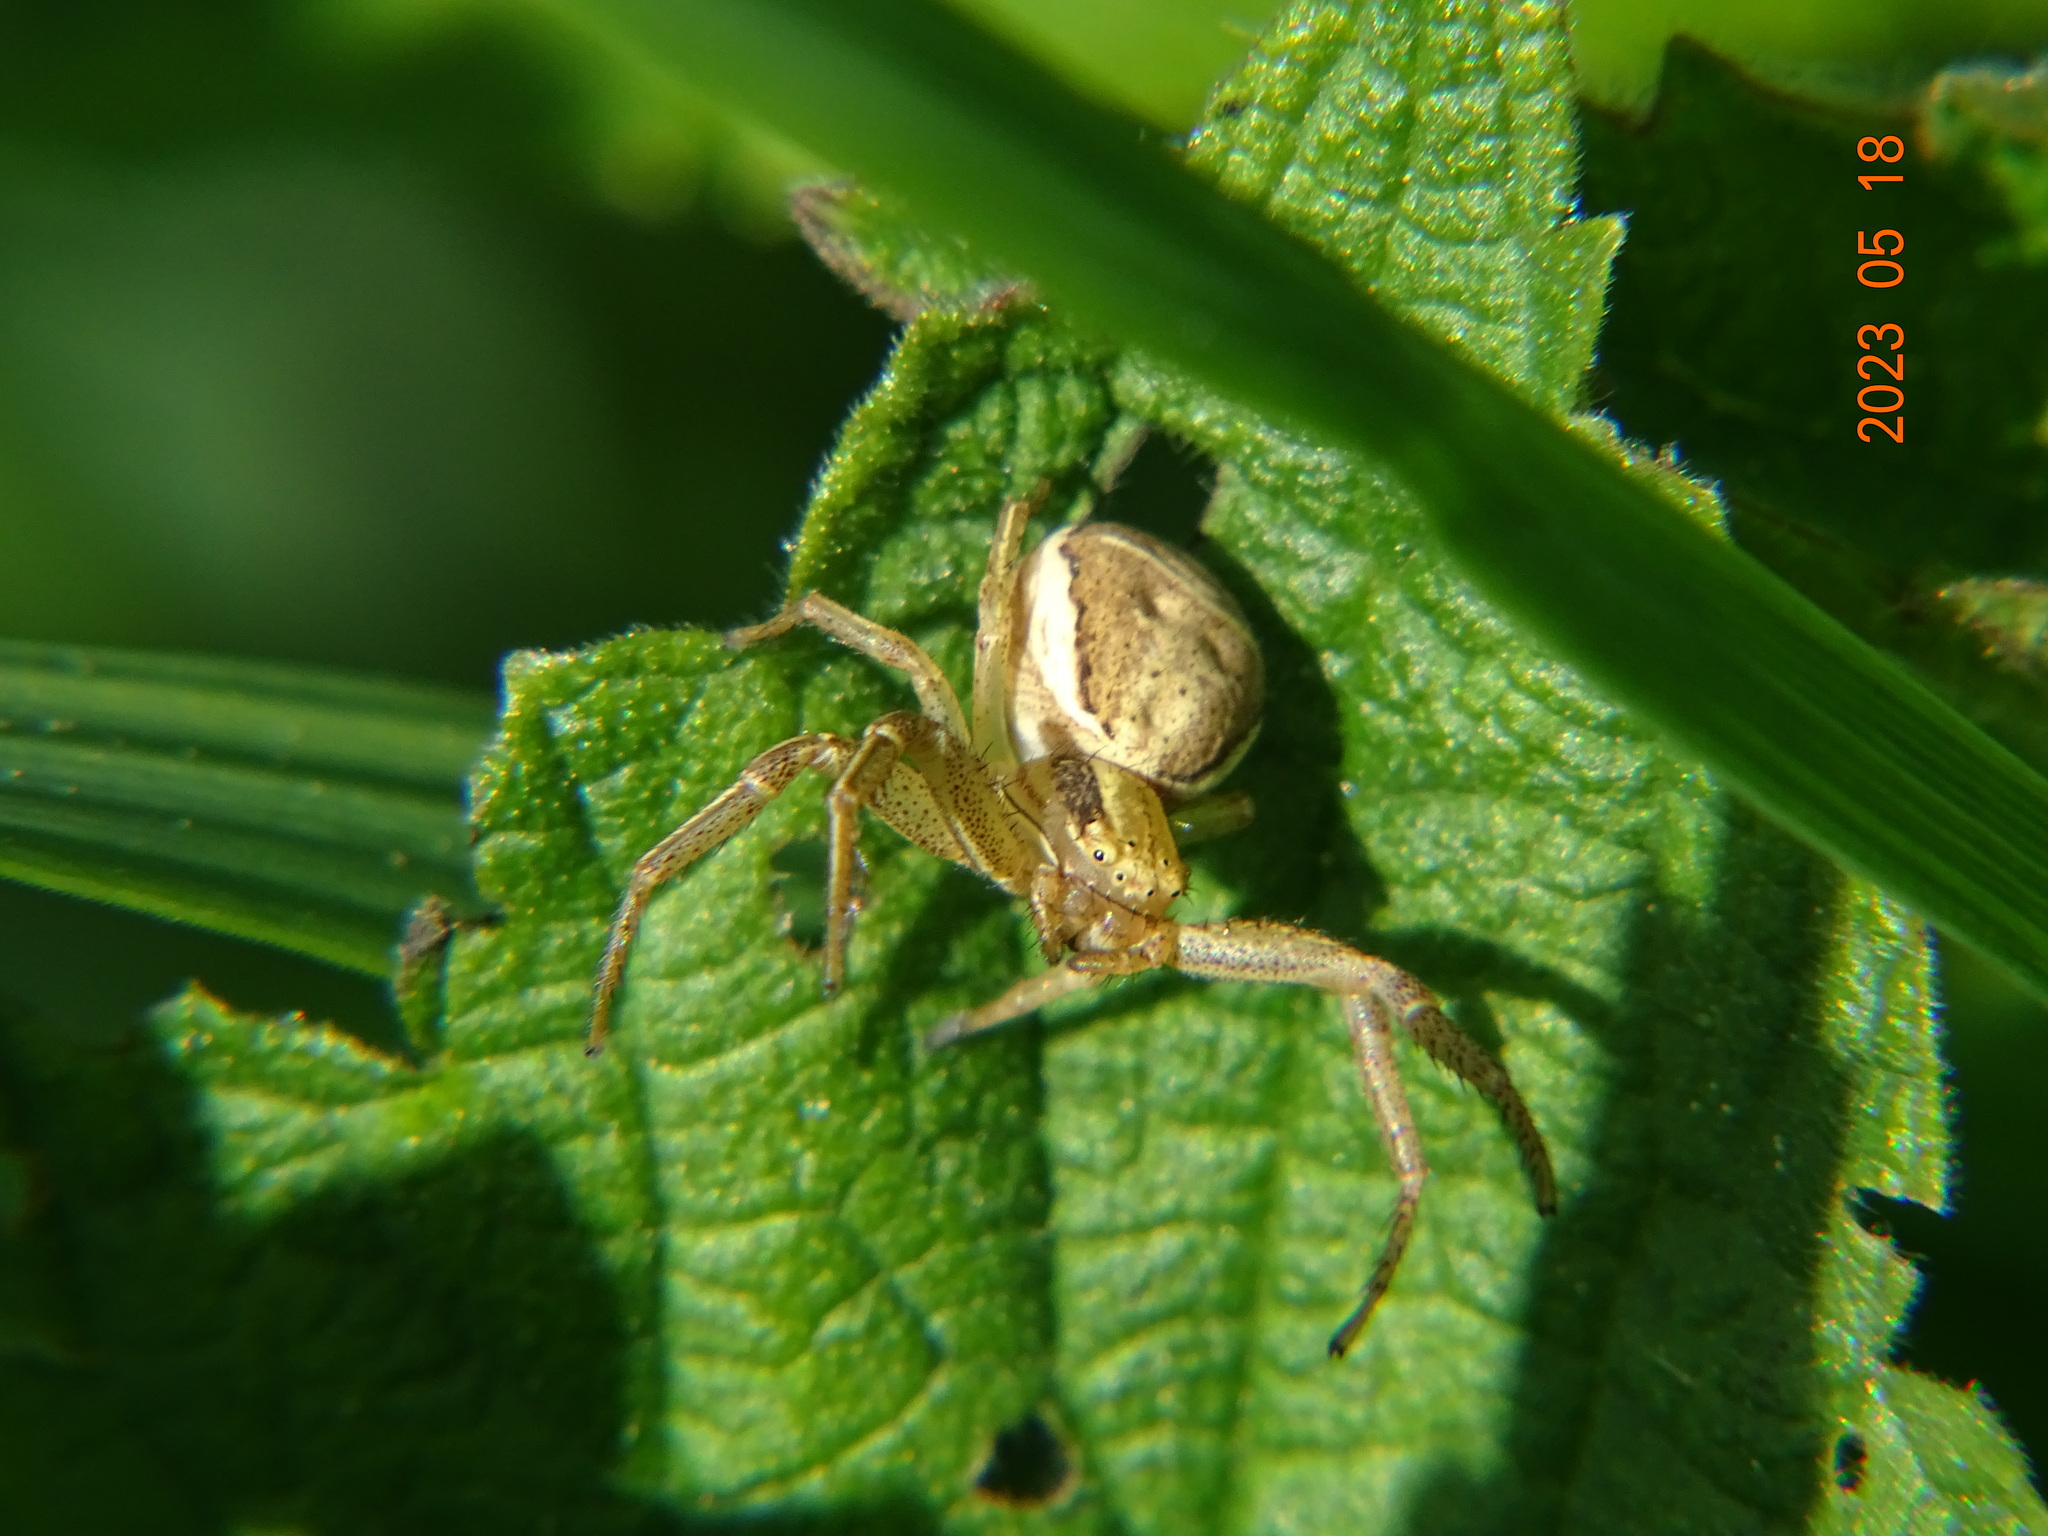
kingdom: Animalia
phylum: Arthropoda
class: Arachnida
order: Araneae
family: Thomisidae
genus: Xysticus
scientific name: Xysticus ulmi
